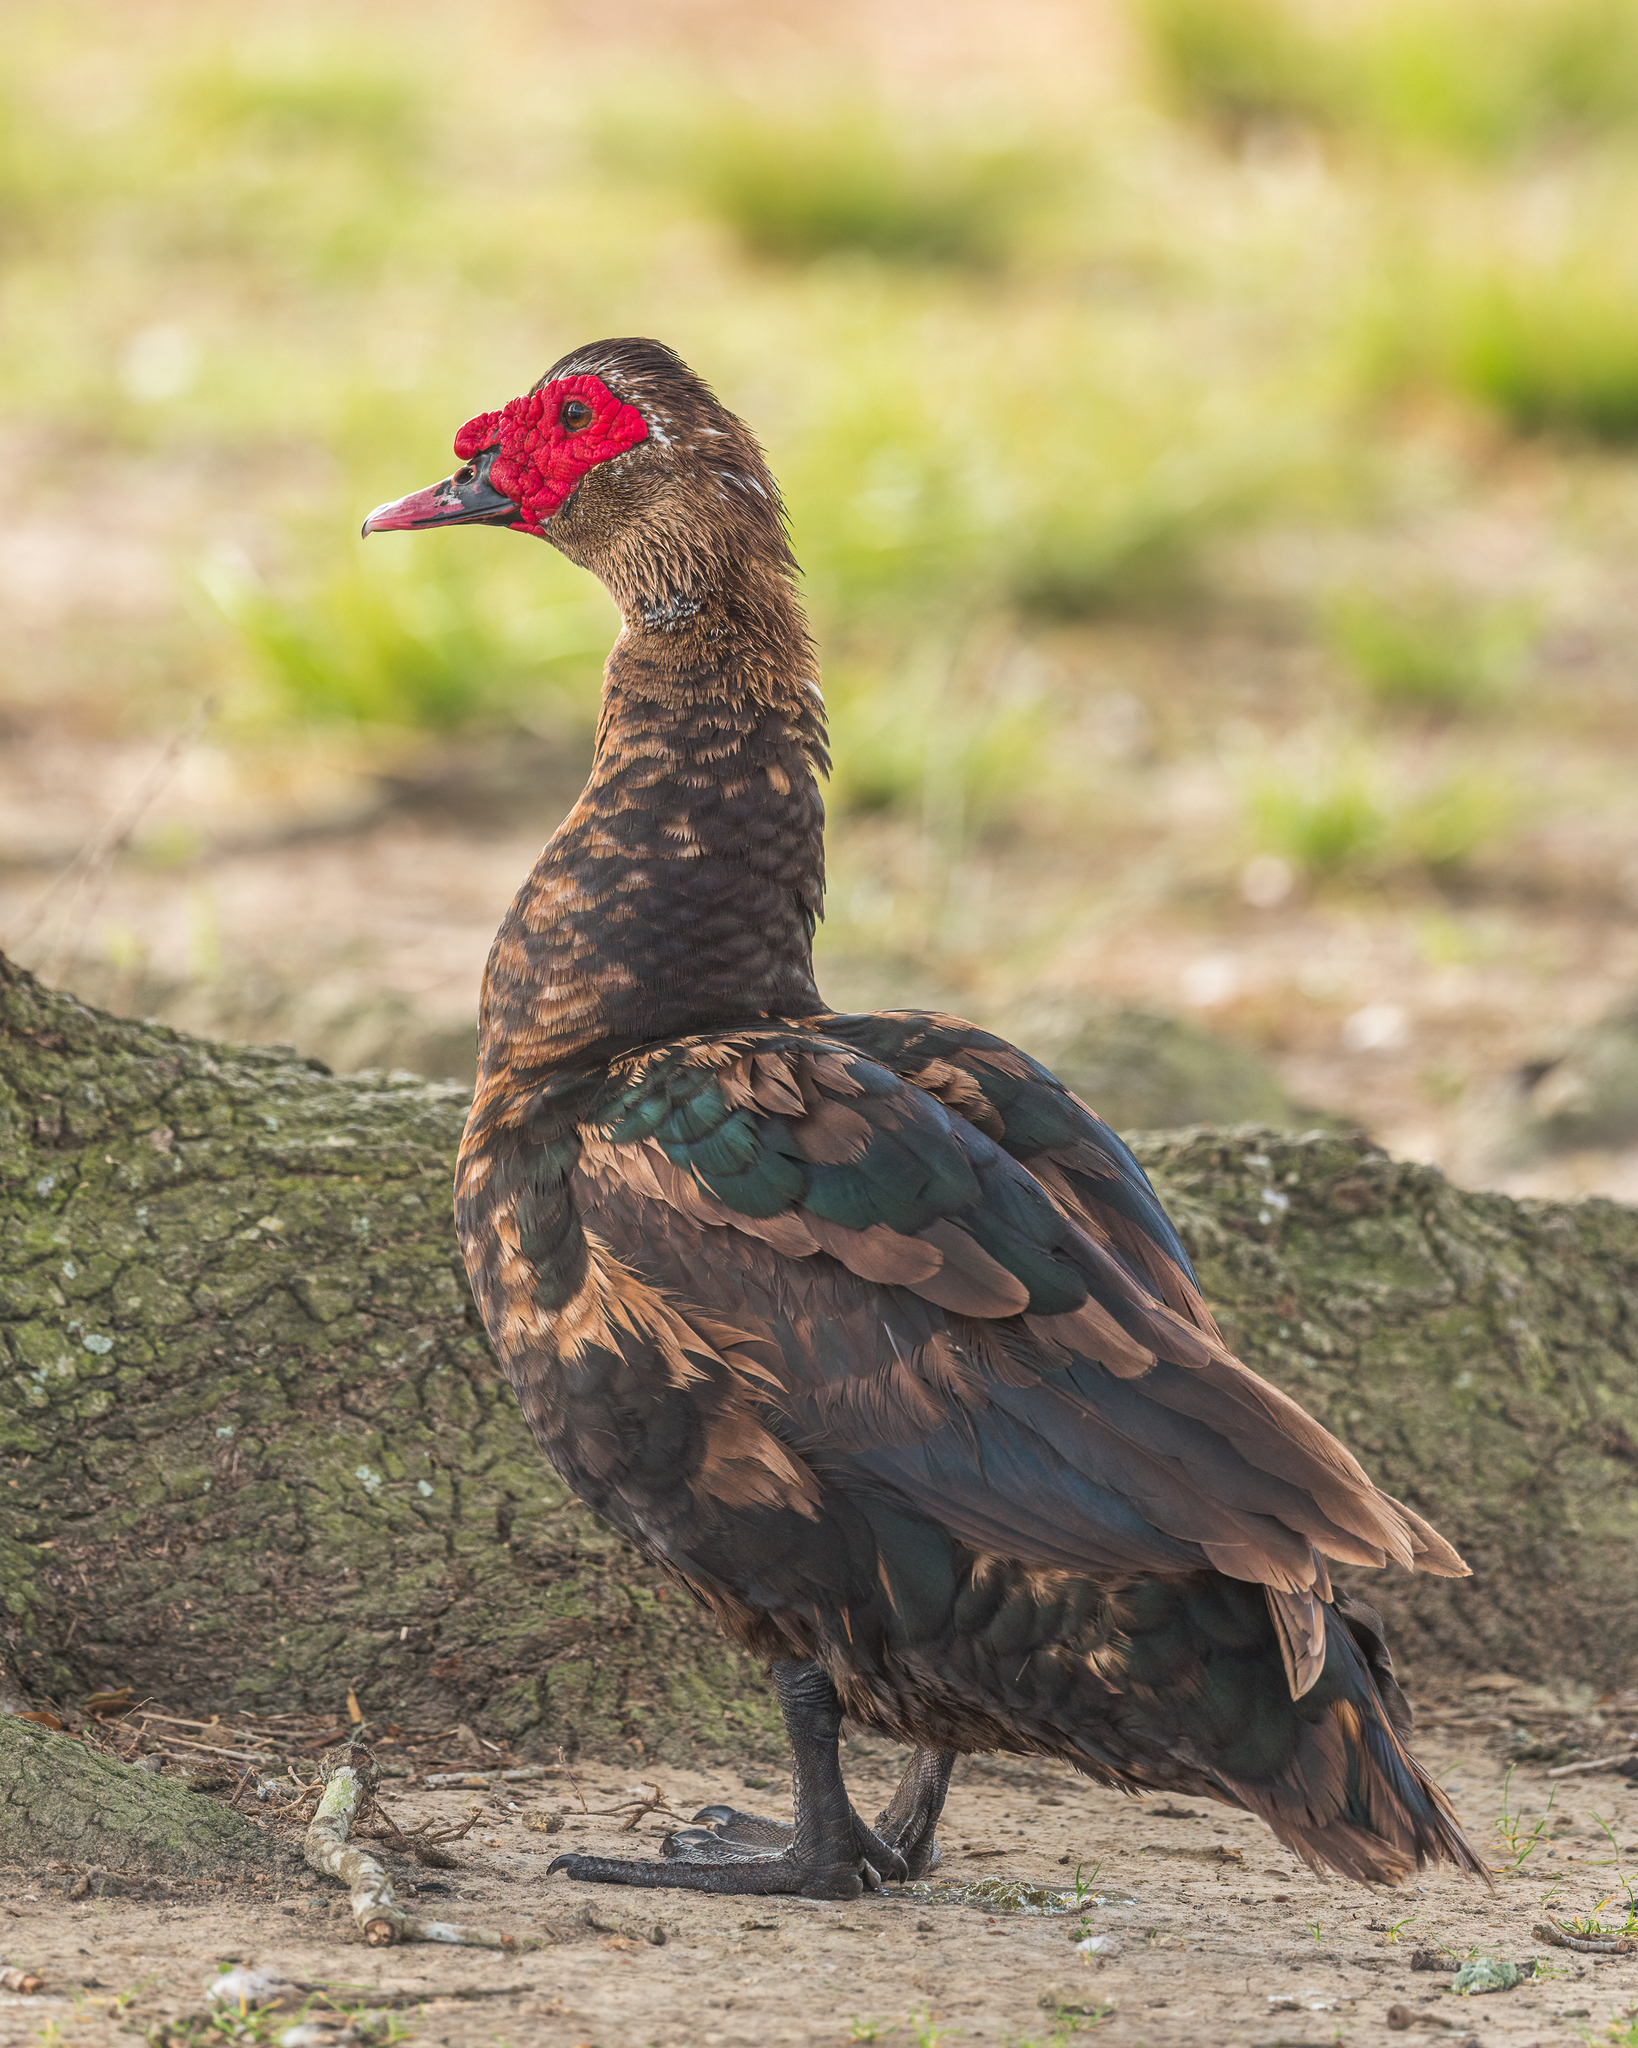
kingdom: Animalia
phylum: Chordata
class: Aves
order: Anseriformes
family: Anatidae
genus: Cairina
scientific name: Cairina moschata
